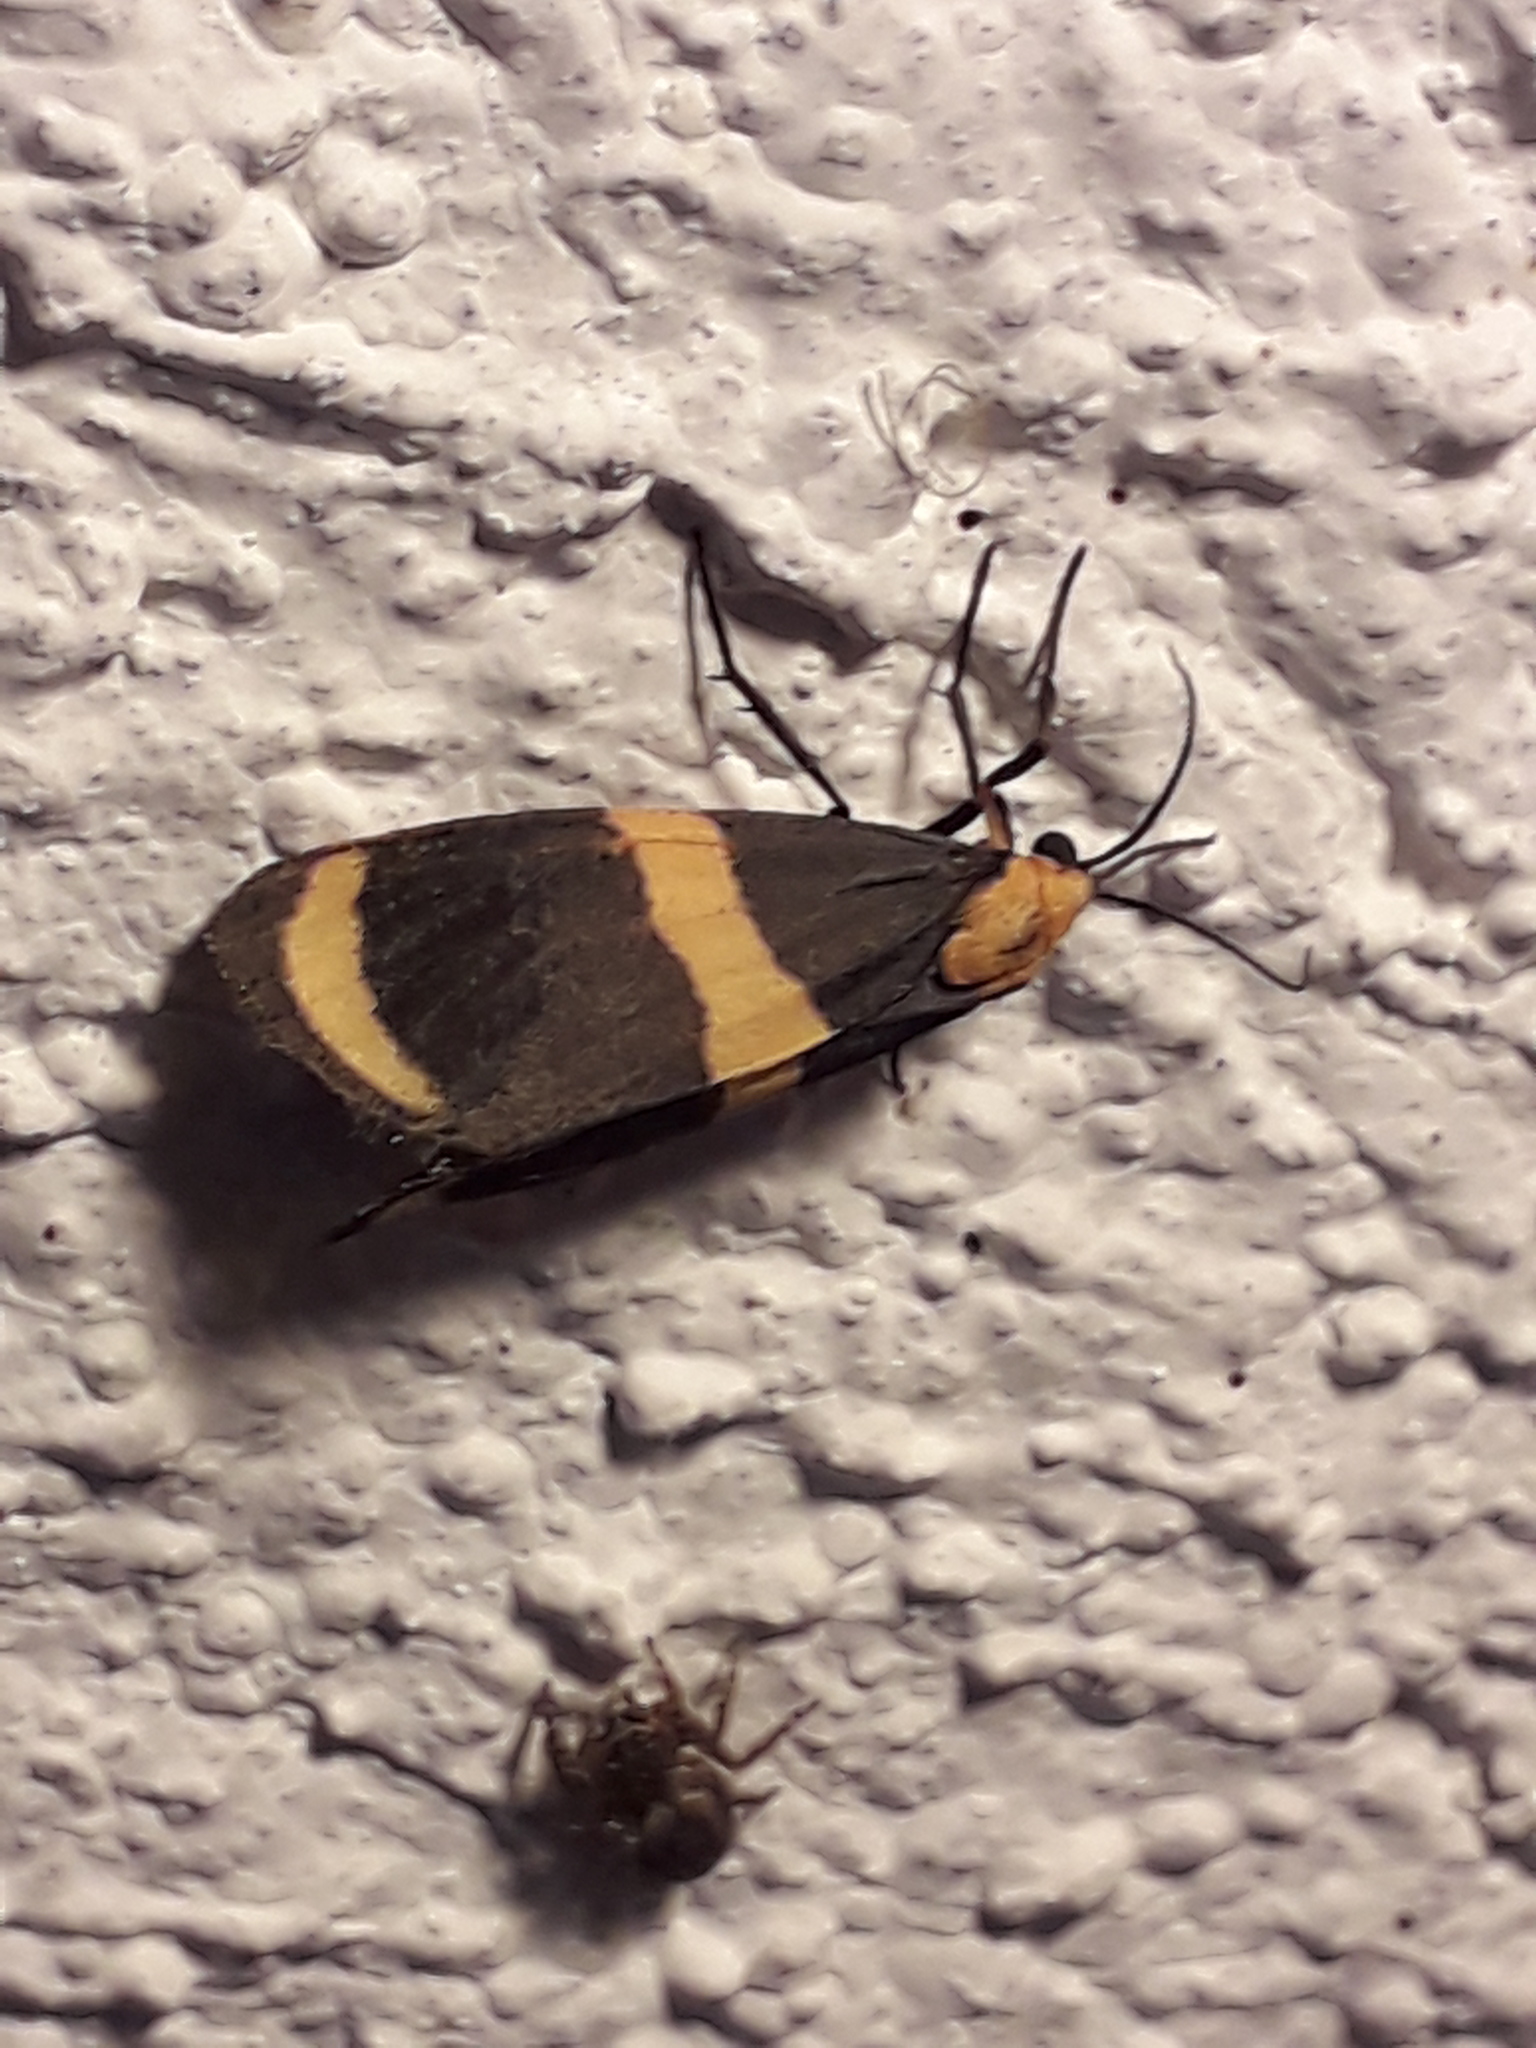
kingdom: Animalia
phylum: Arthropoda
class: Insecta
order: Lepidoptera
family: Erebidae
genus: Eudesmia
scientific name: Eudesmia arida
